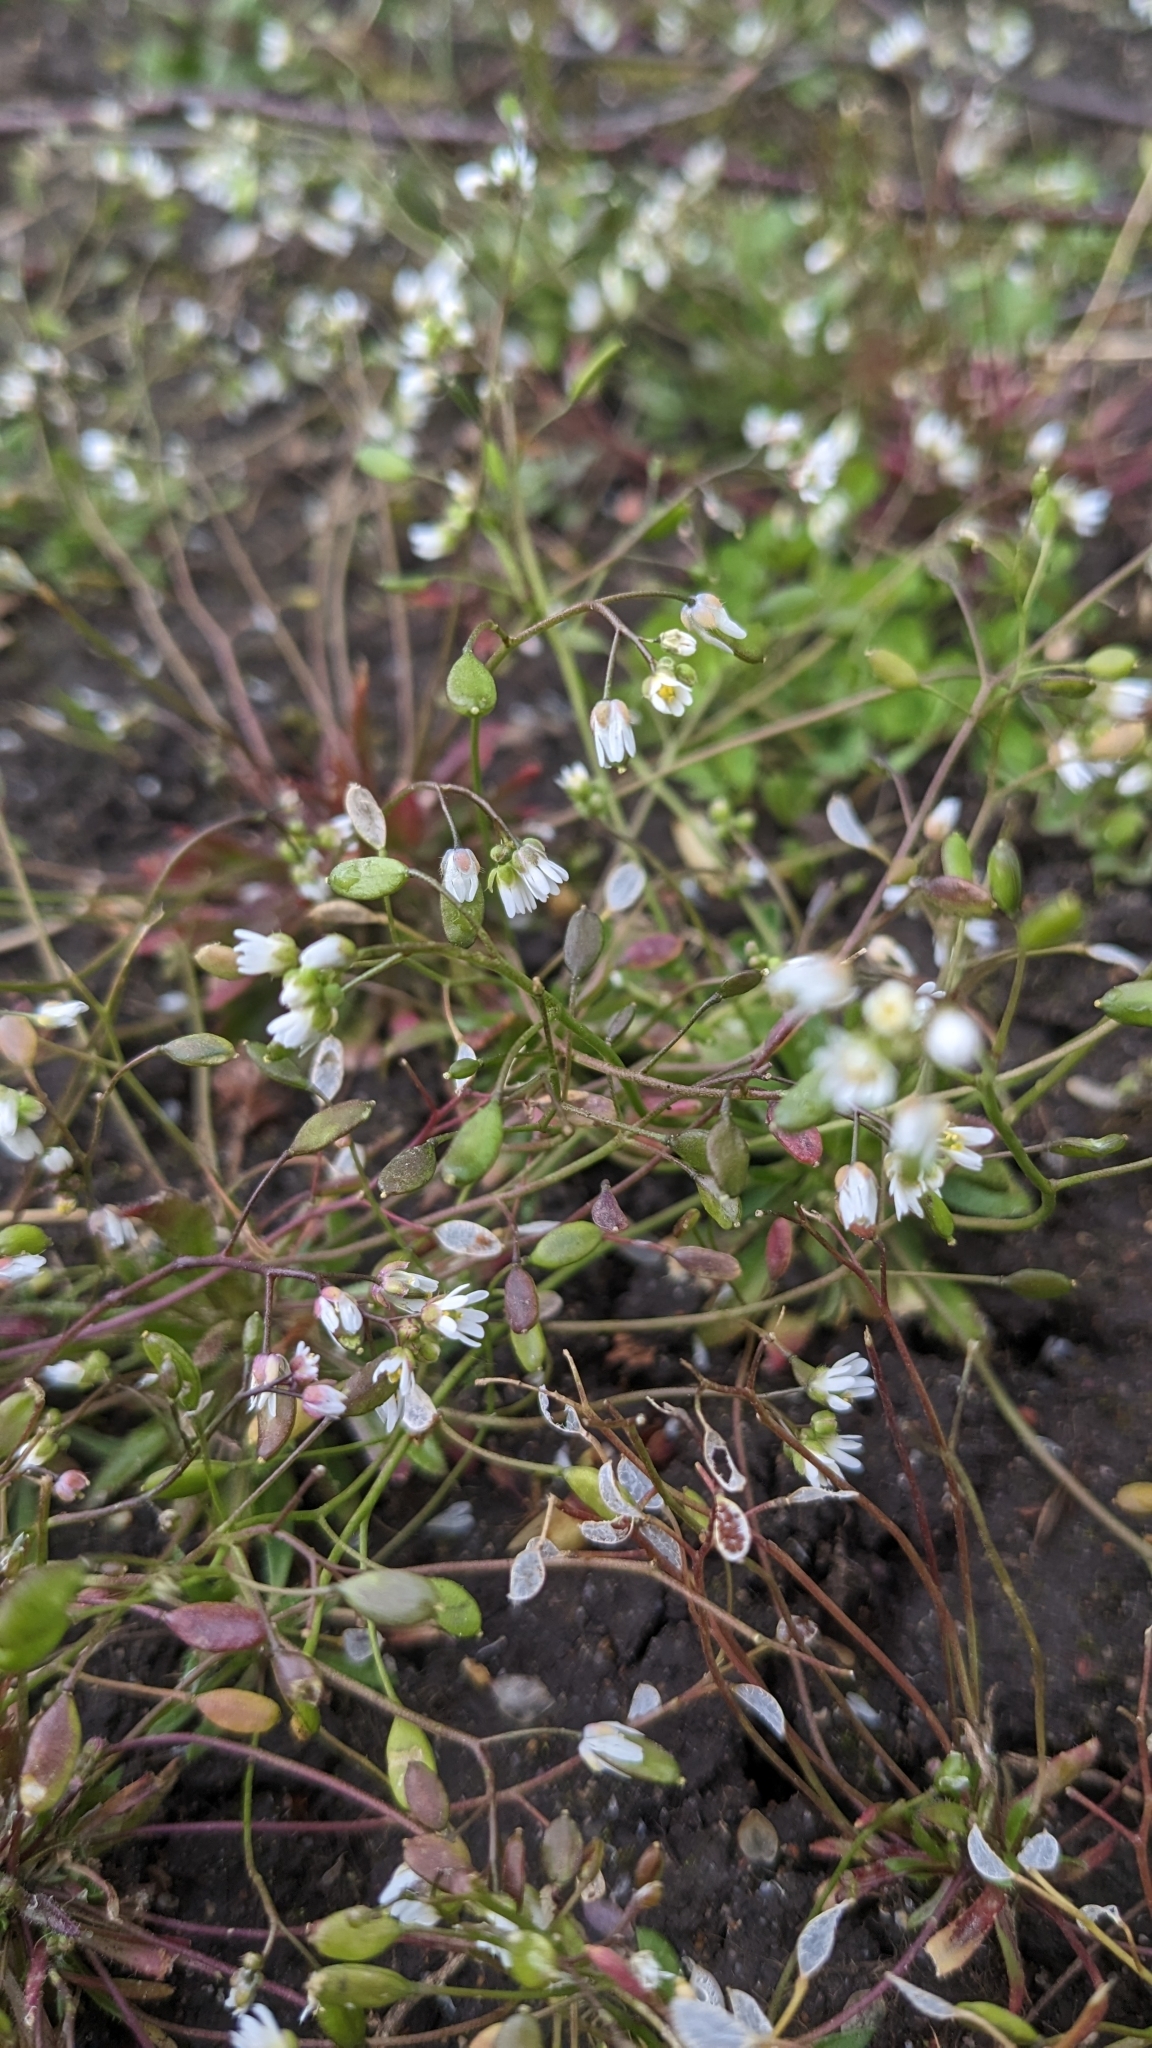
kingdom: Plantae
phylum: Tracheophyta
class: Magnoliopsida
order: Brassicales
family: Brassicaceae
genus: Draba
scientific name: Draba verna
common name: Spring draba
